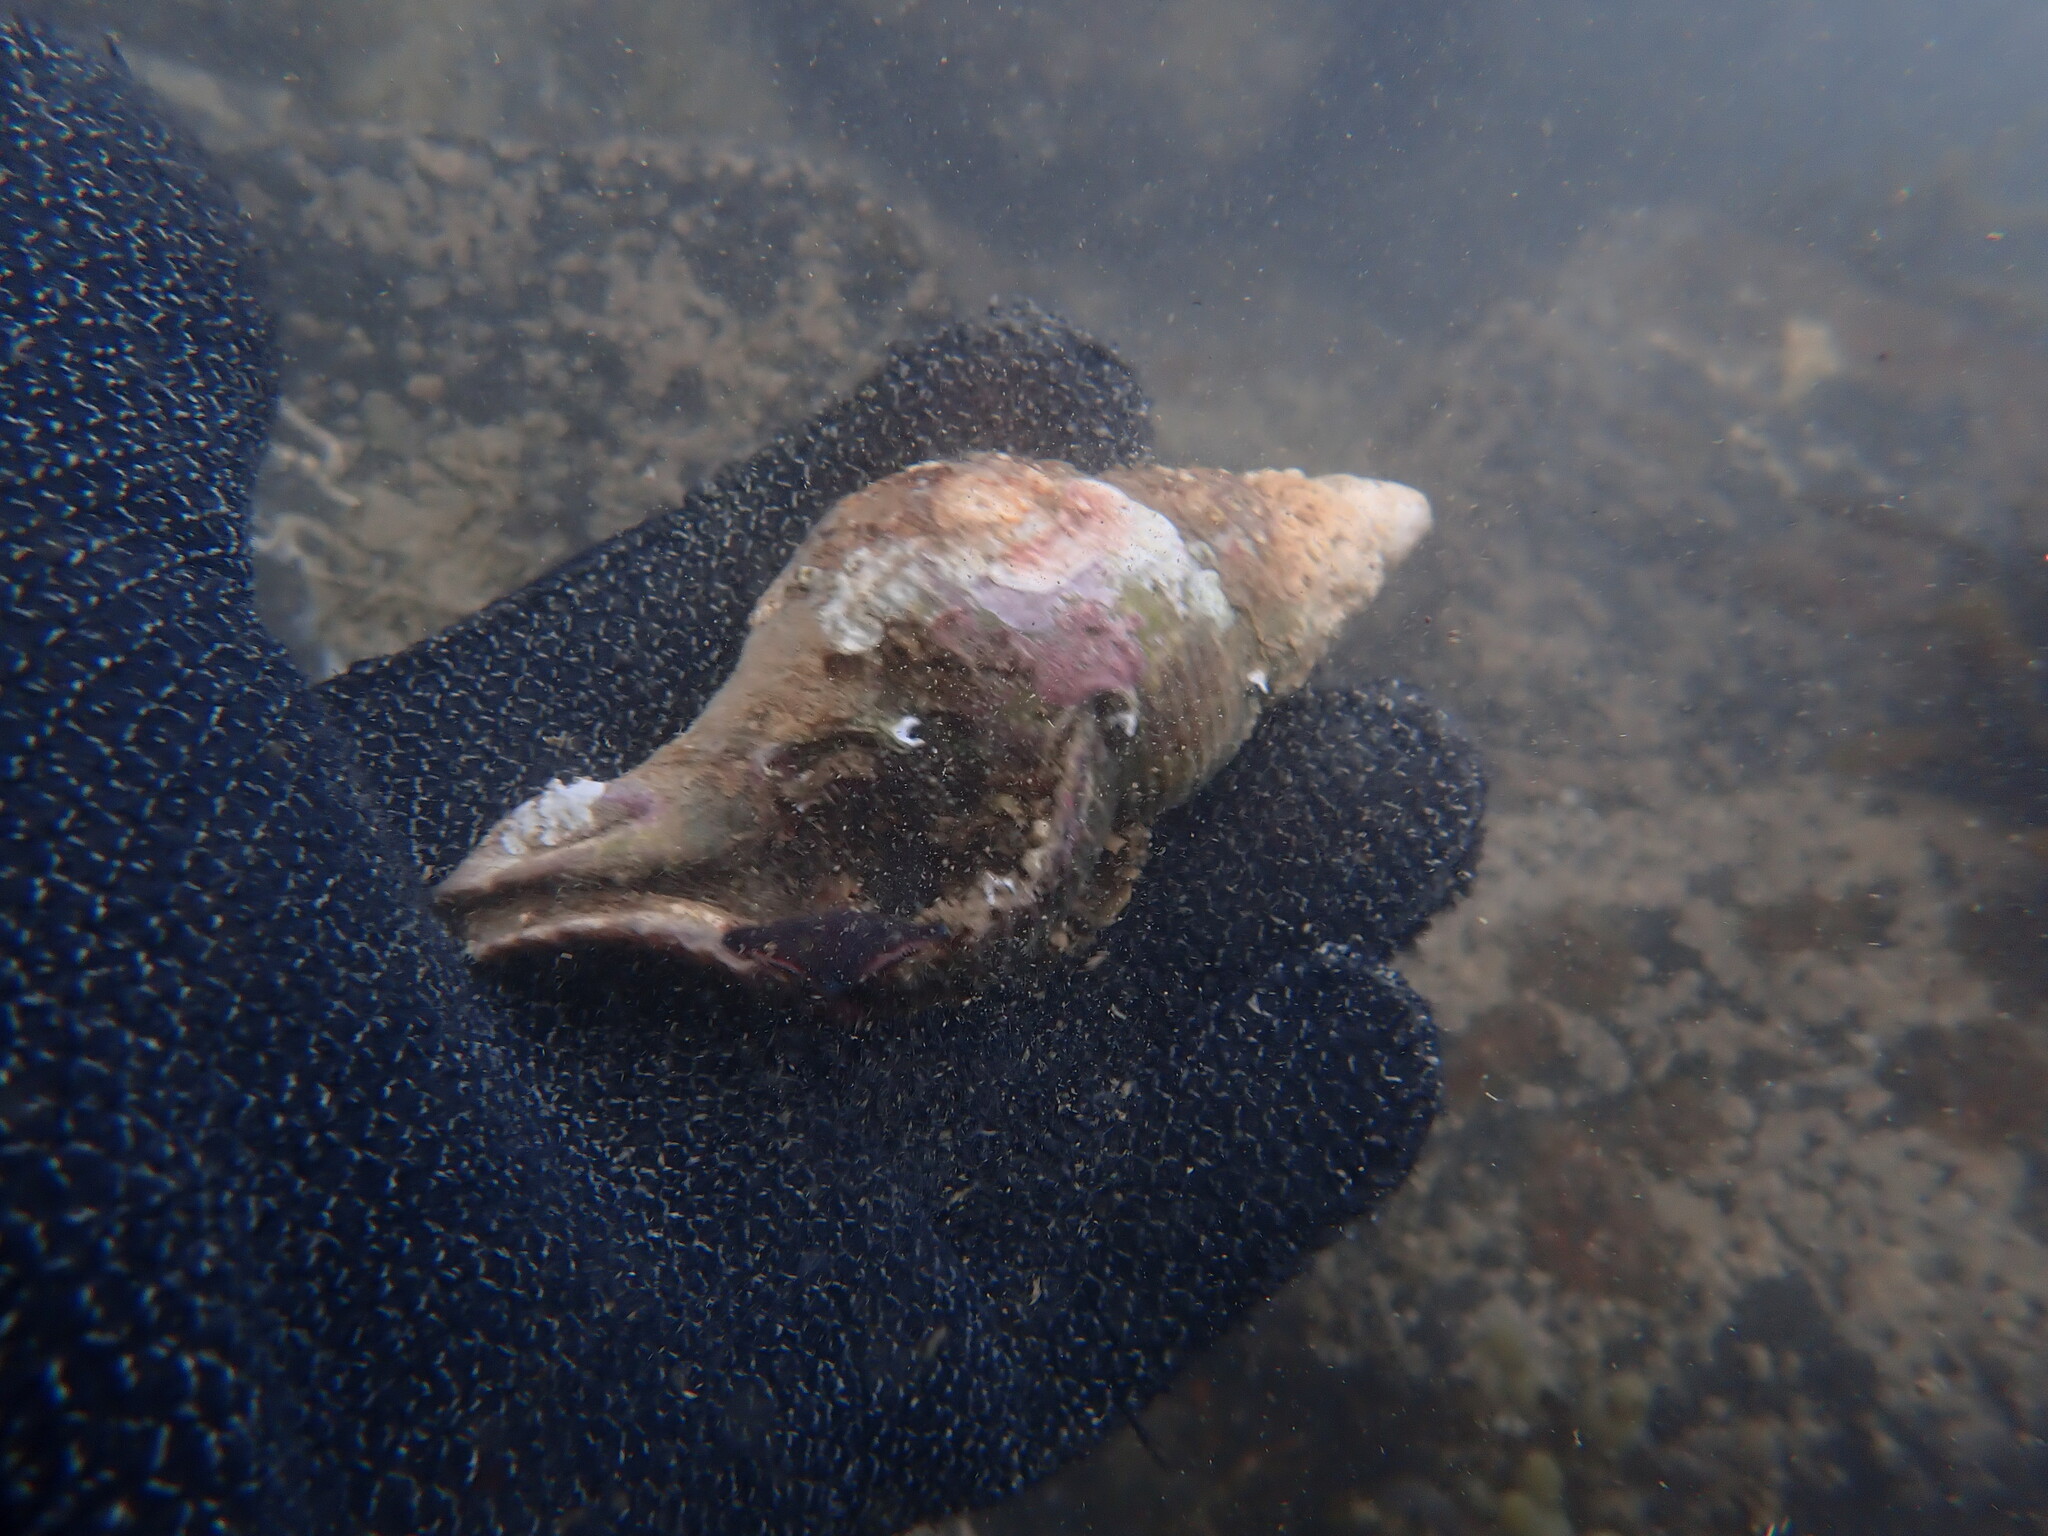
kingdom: Animalia
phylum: Mollusca
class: Gastropoda
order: Neogastropoda
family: Austrosiphonidae
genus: Penion
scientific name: Penion sulcatus
